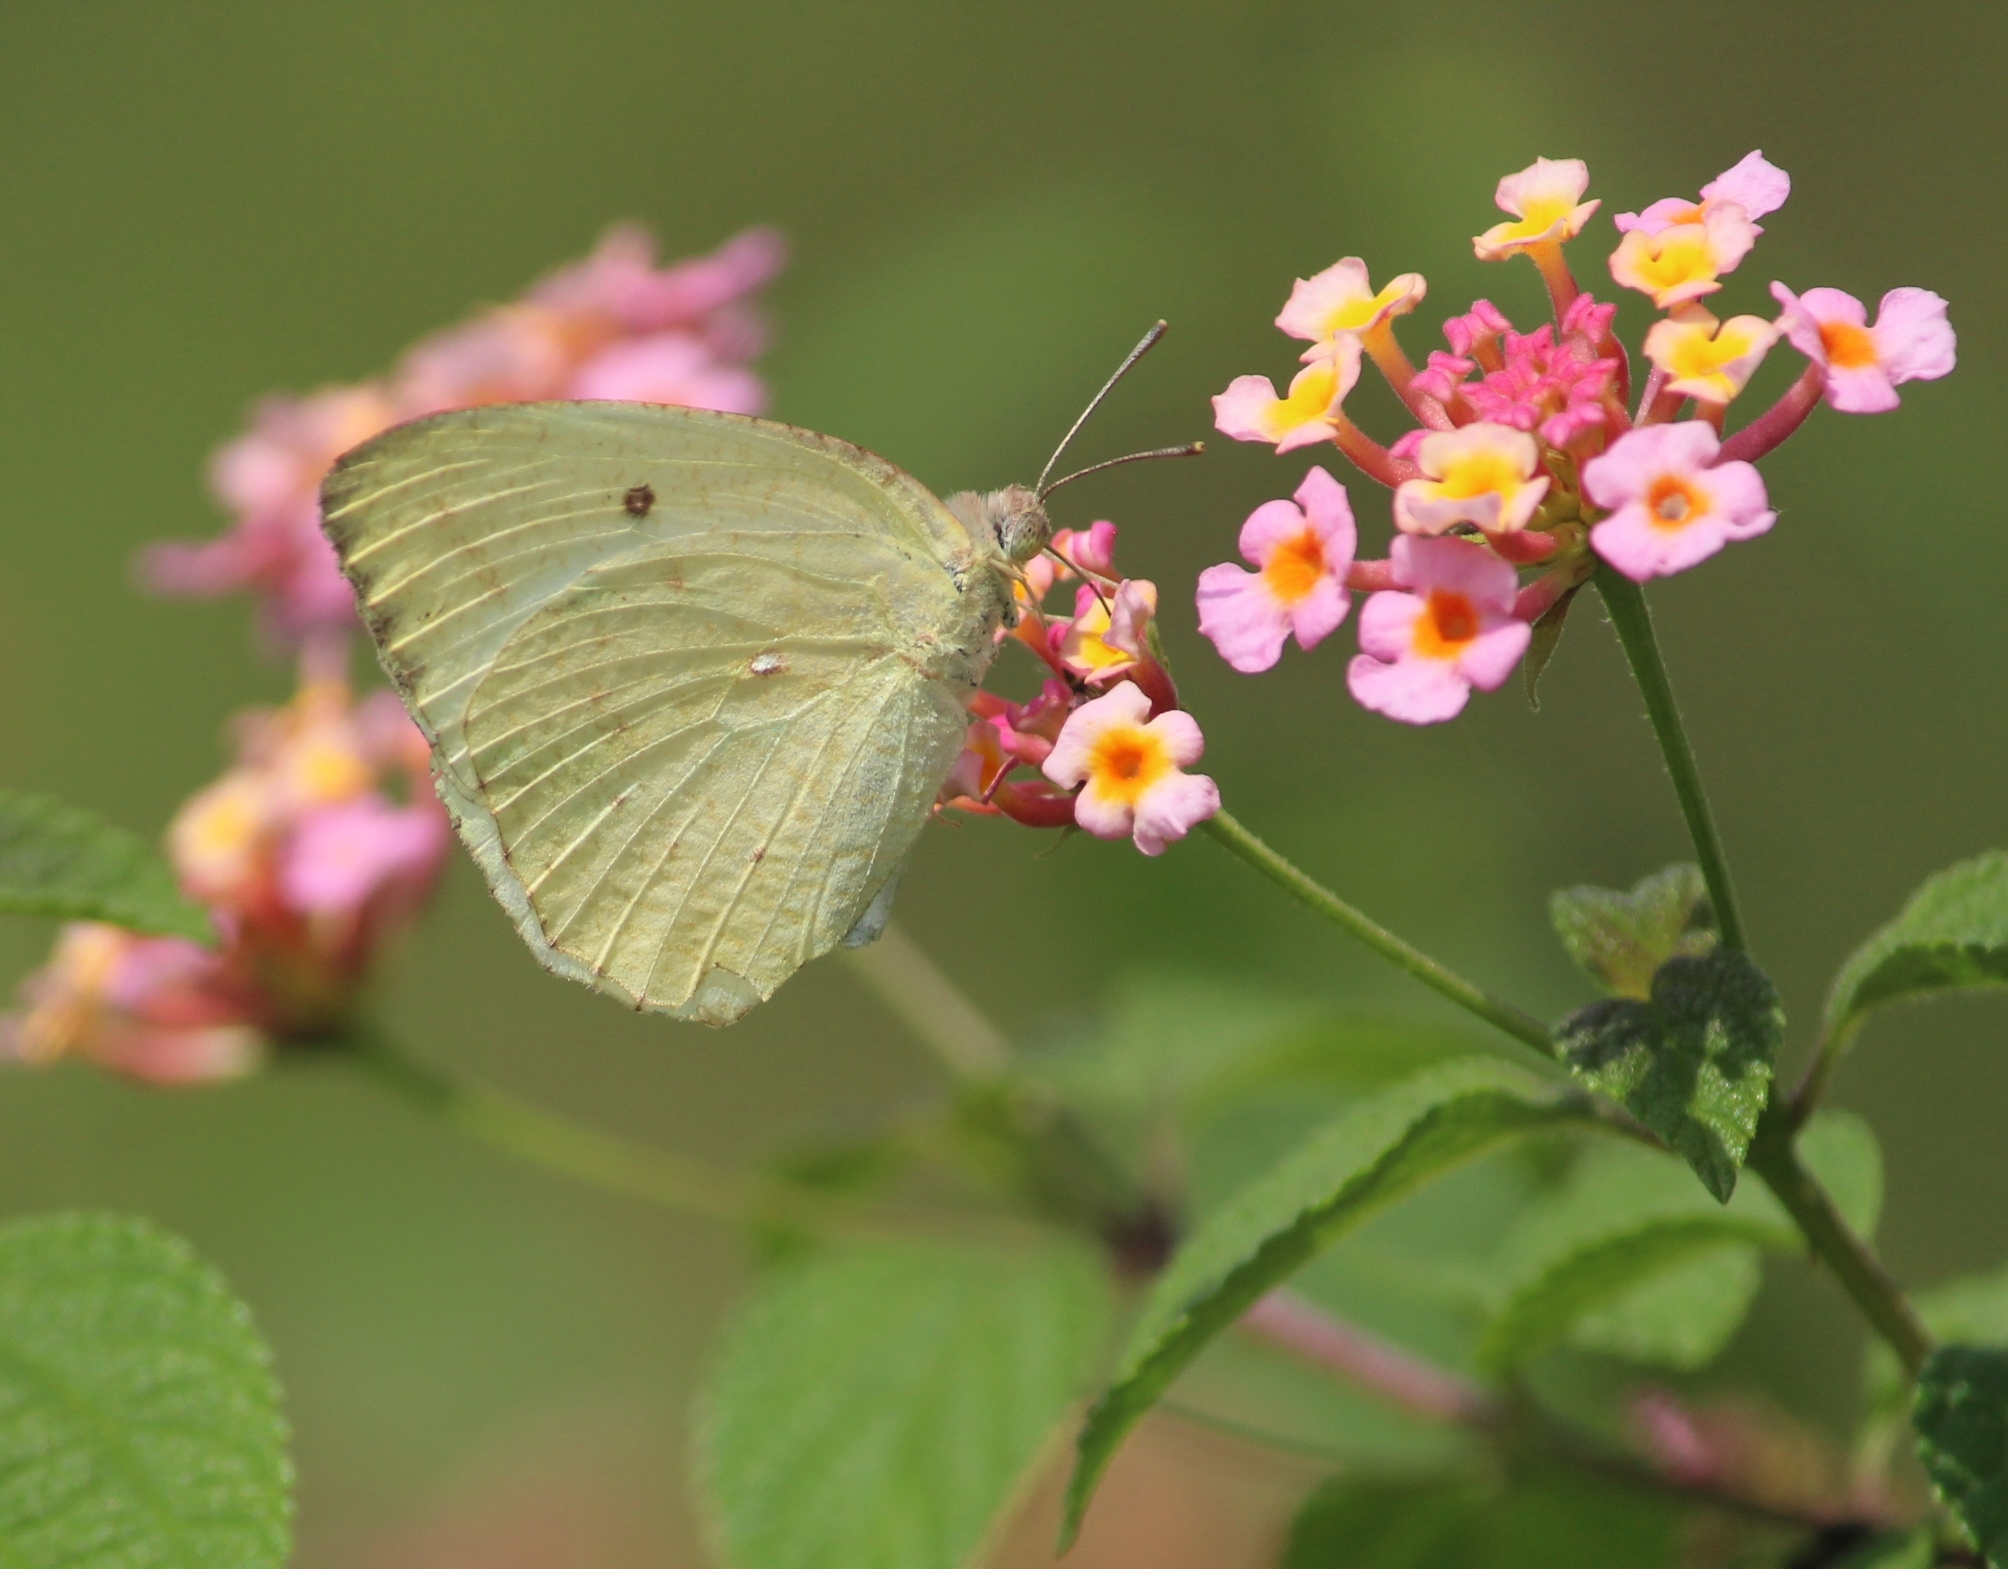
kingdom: Animalia
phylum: Arthropoda
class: Insecta
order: Lepidoptera
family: Pieridae
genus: Catopsilia
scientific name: Catopsilia pyranthe
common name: Mottled emigrant
